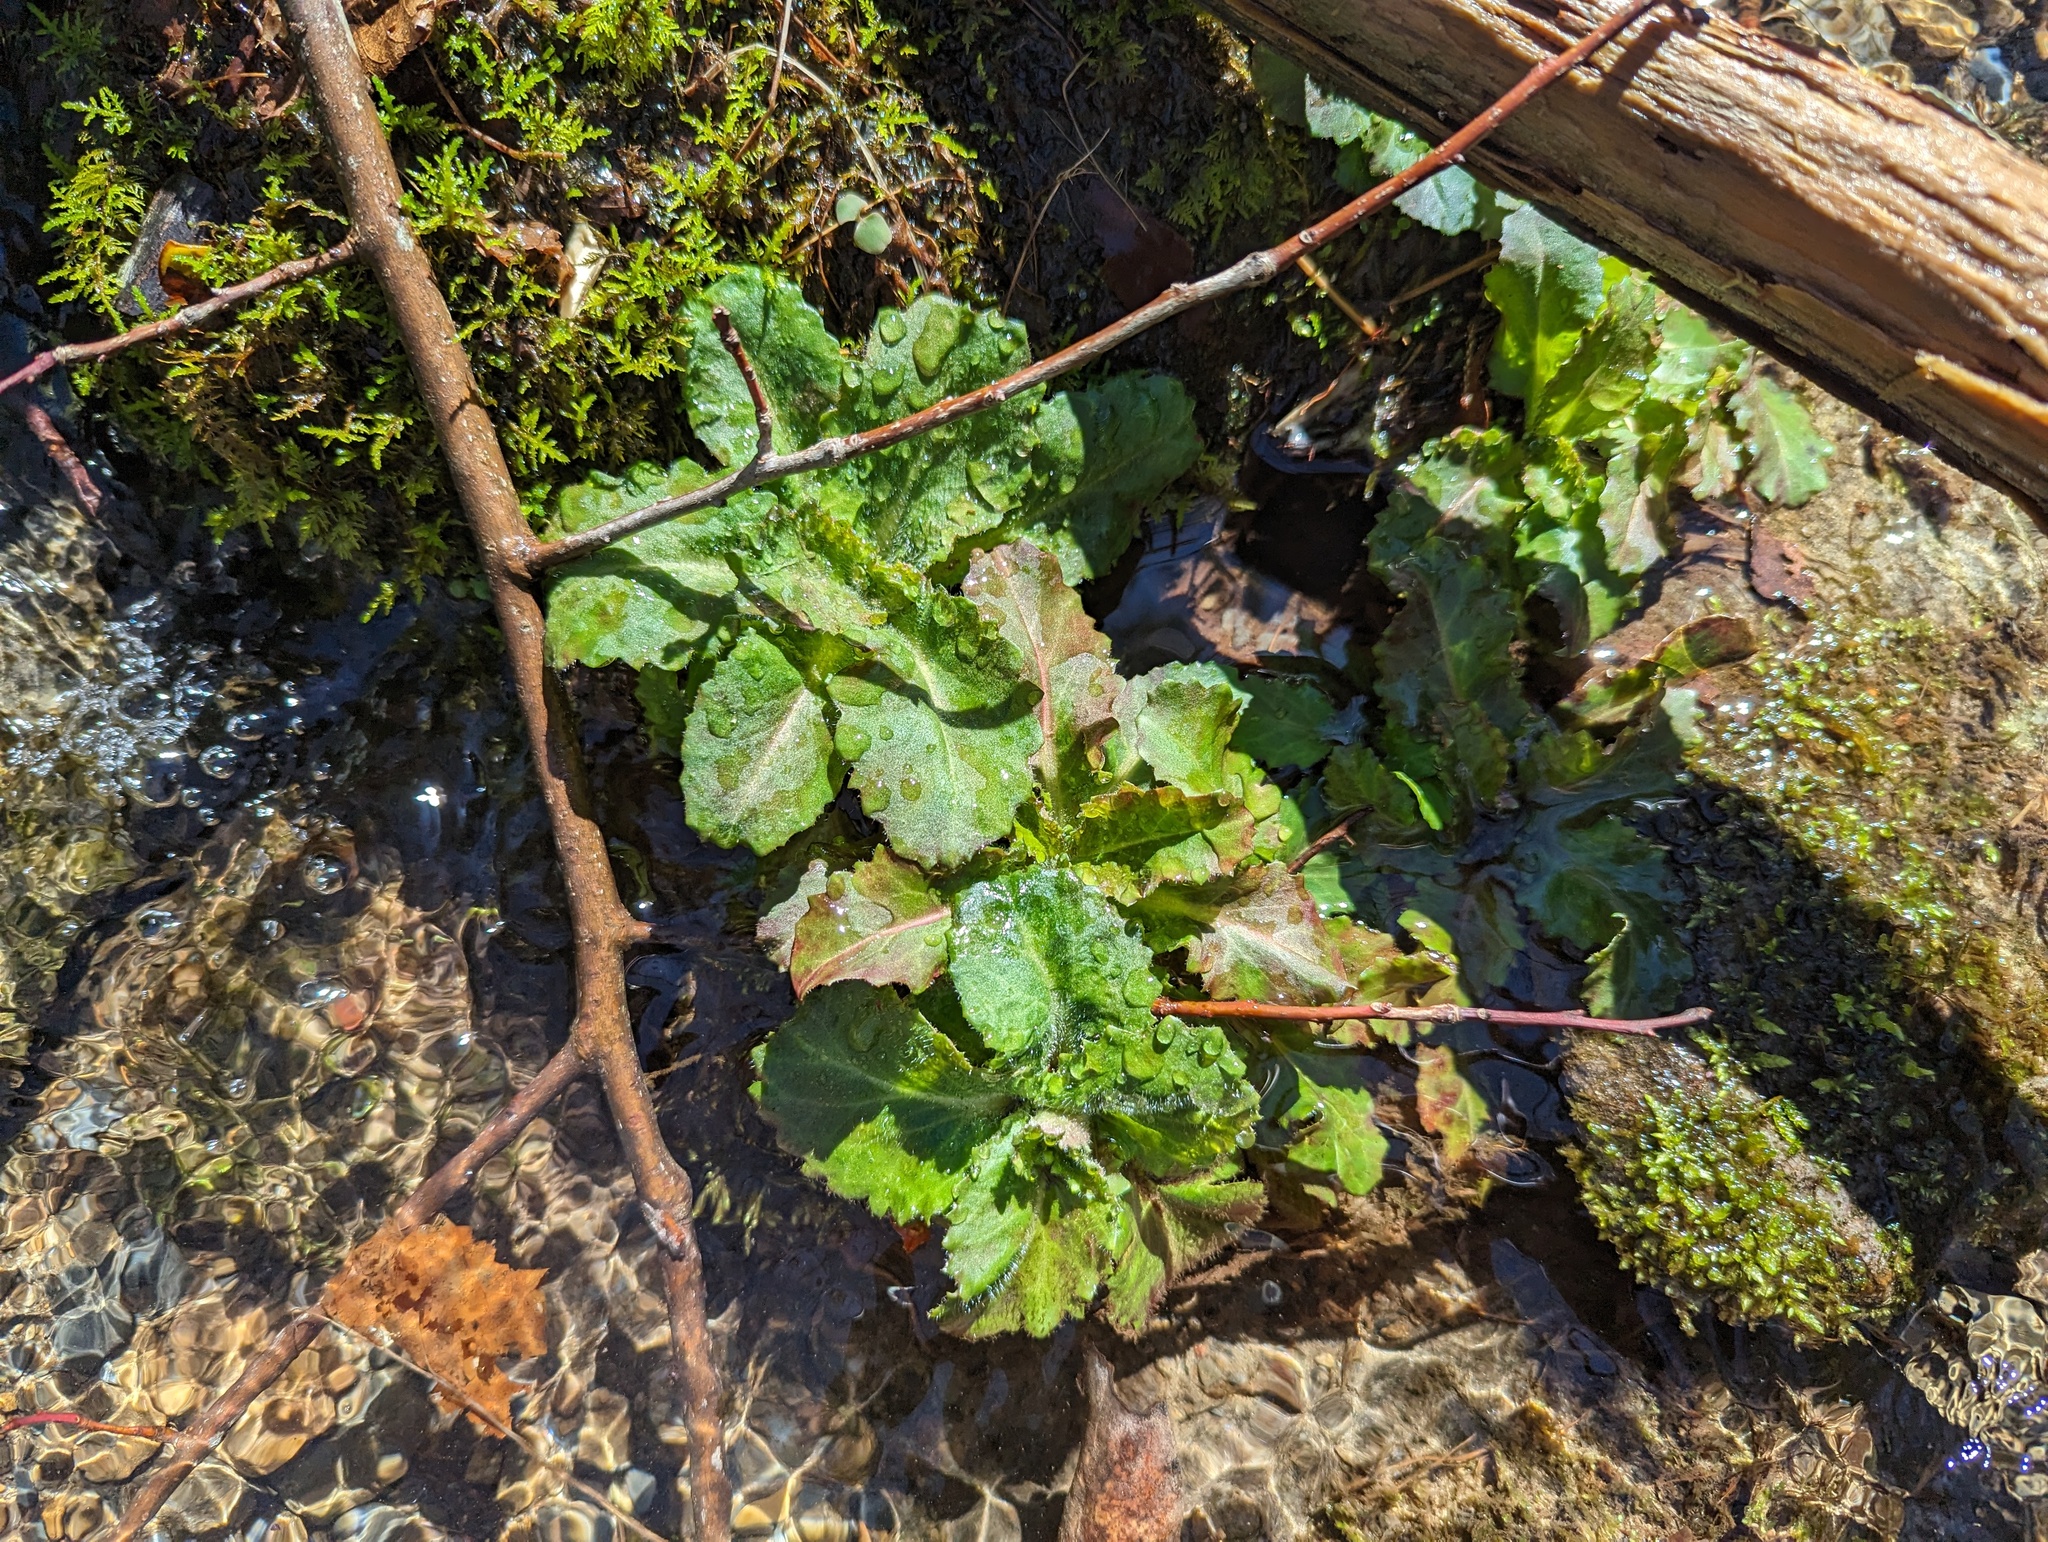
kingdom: Plantae
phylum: Tracheophyta
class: Magnoliopsida
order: Saxifragales
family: Saxifragaceae
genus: Micranthes
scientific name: Micranthes micranthidifolia
